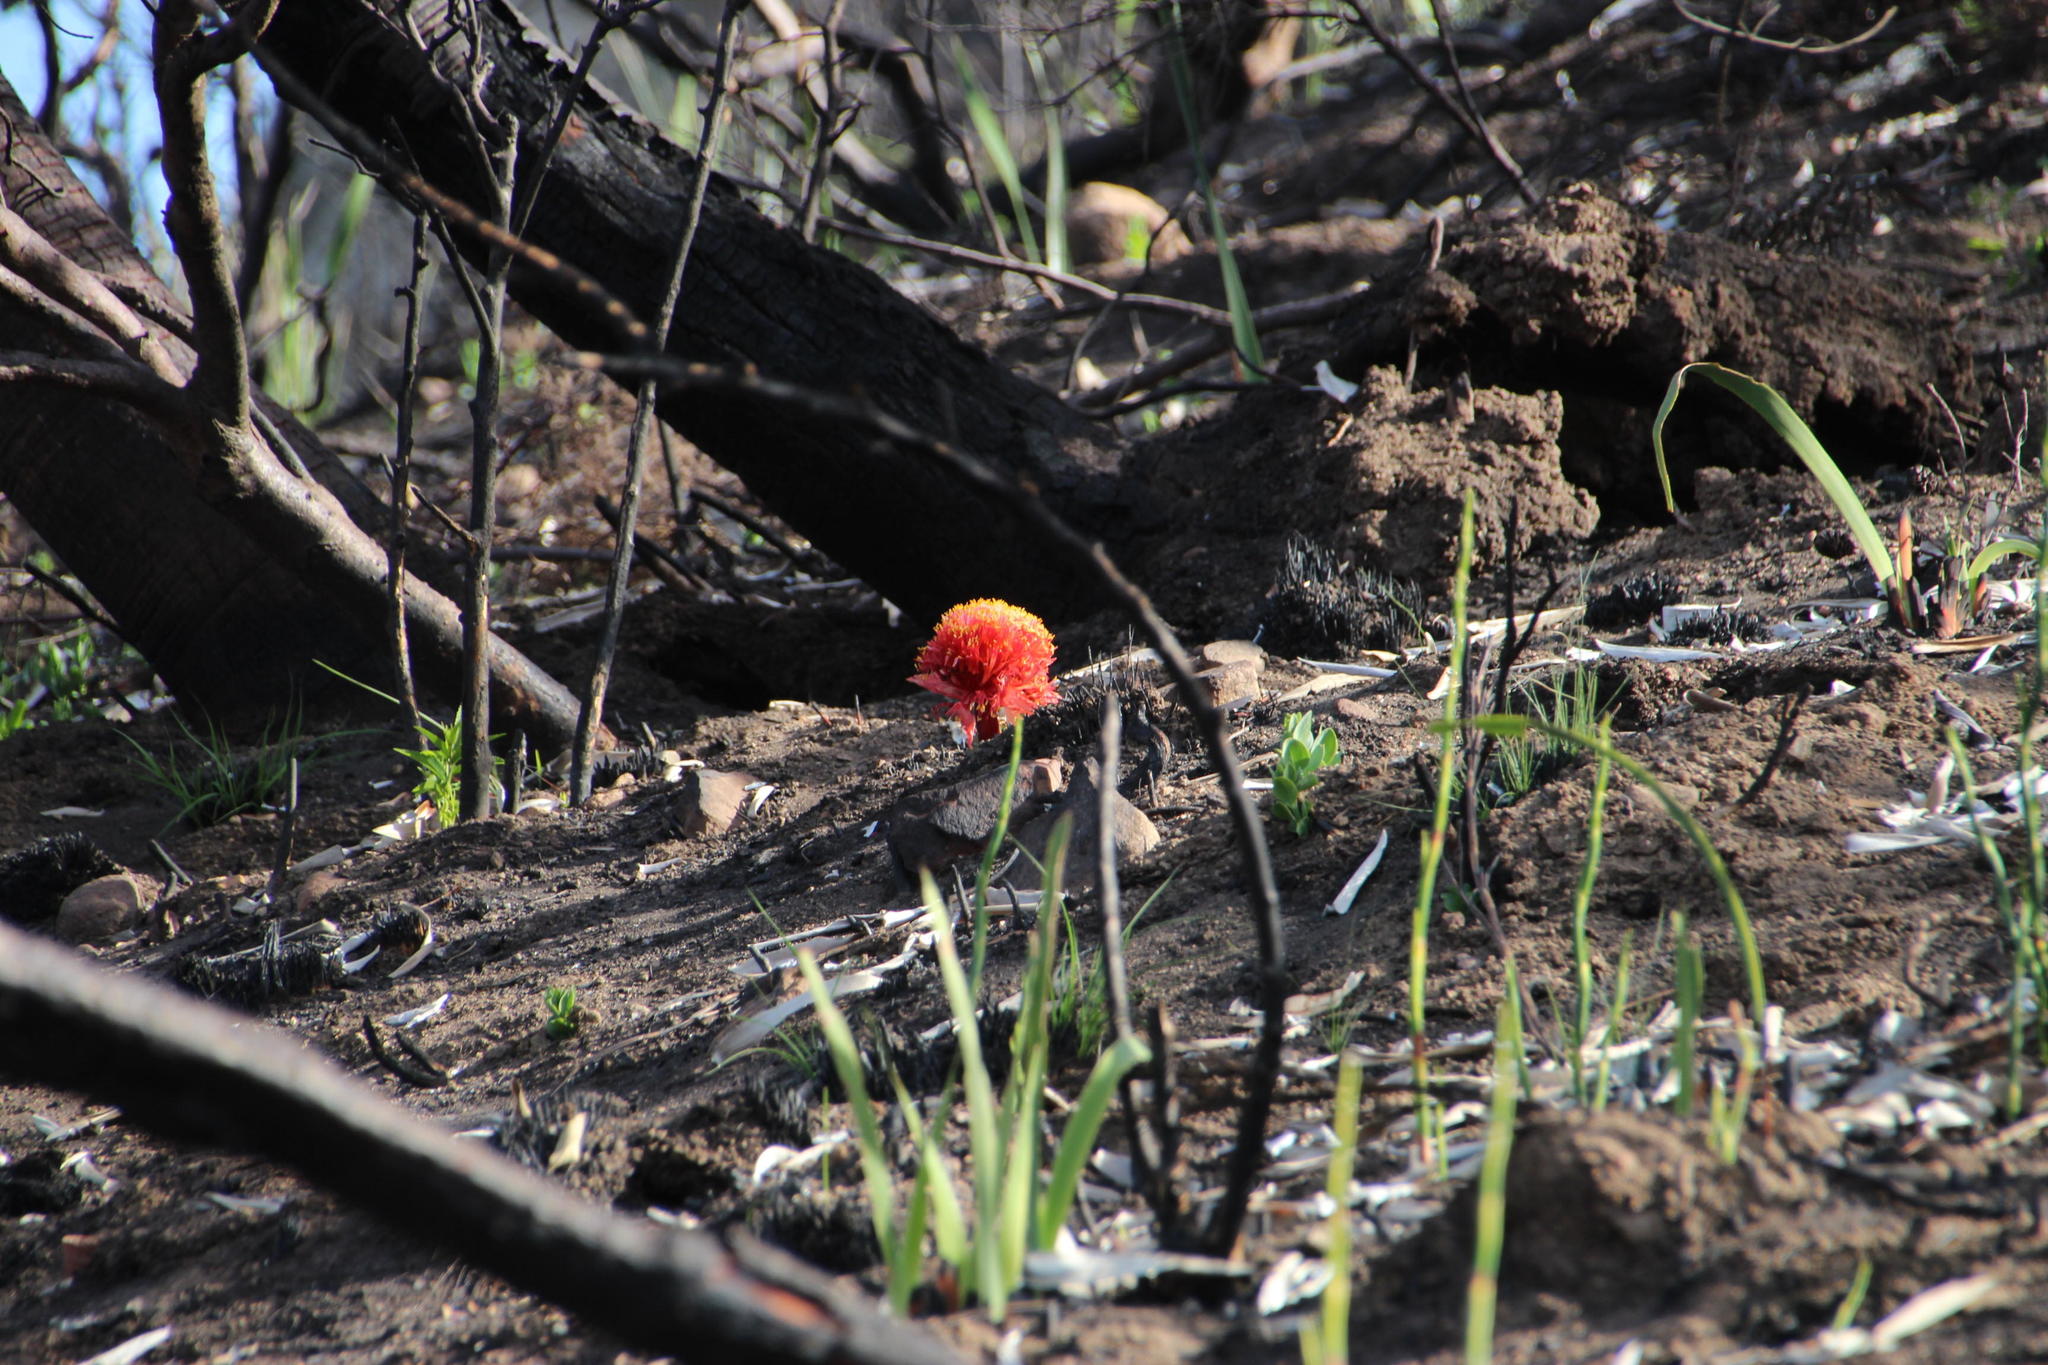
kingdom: Plantae
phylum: Tracheophyta
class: Liliopsida
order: Asparagales
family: Amaryllidaceae
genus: Haemanthus
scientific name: Haemanthus sanguineus
